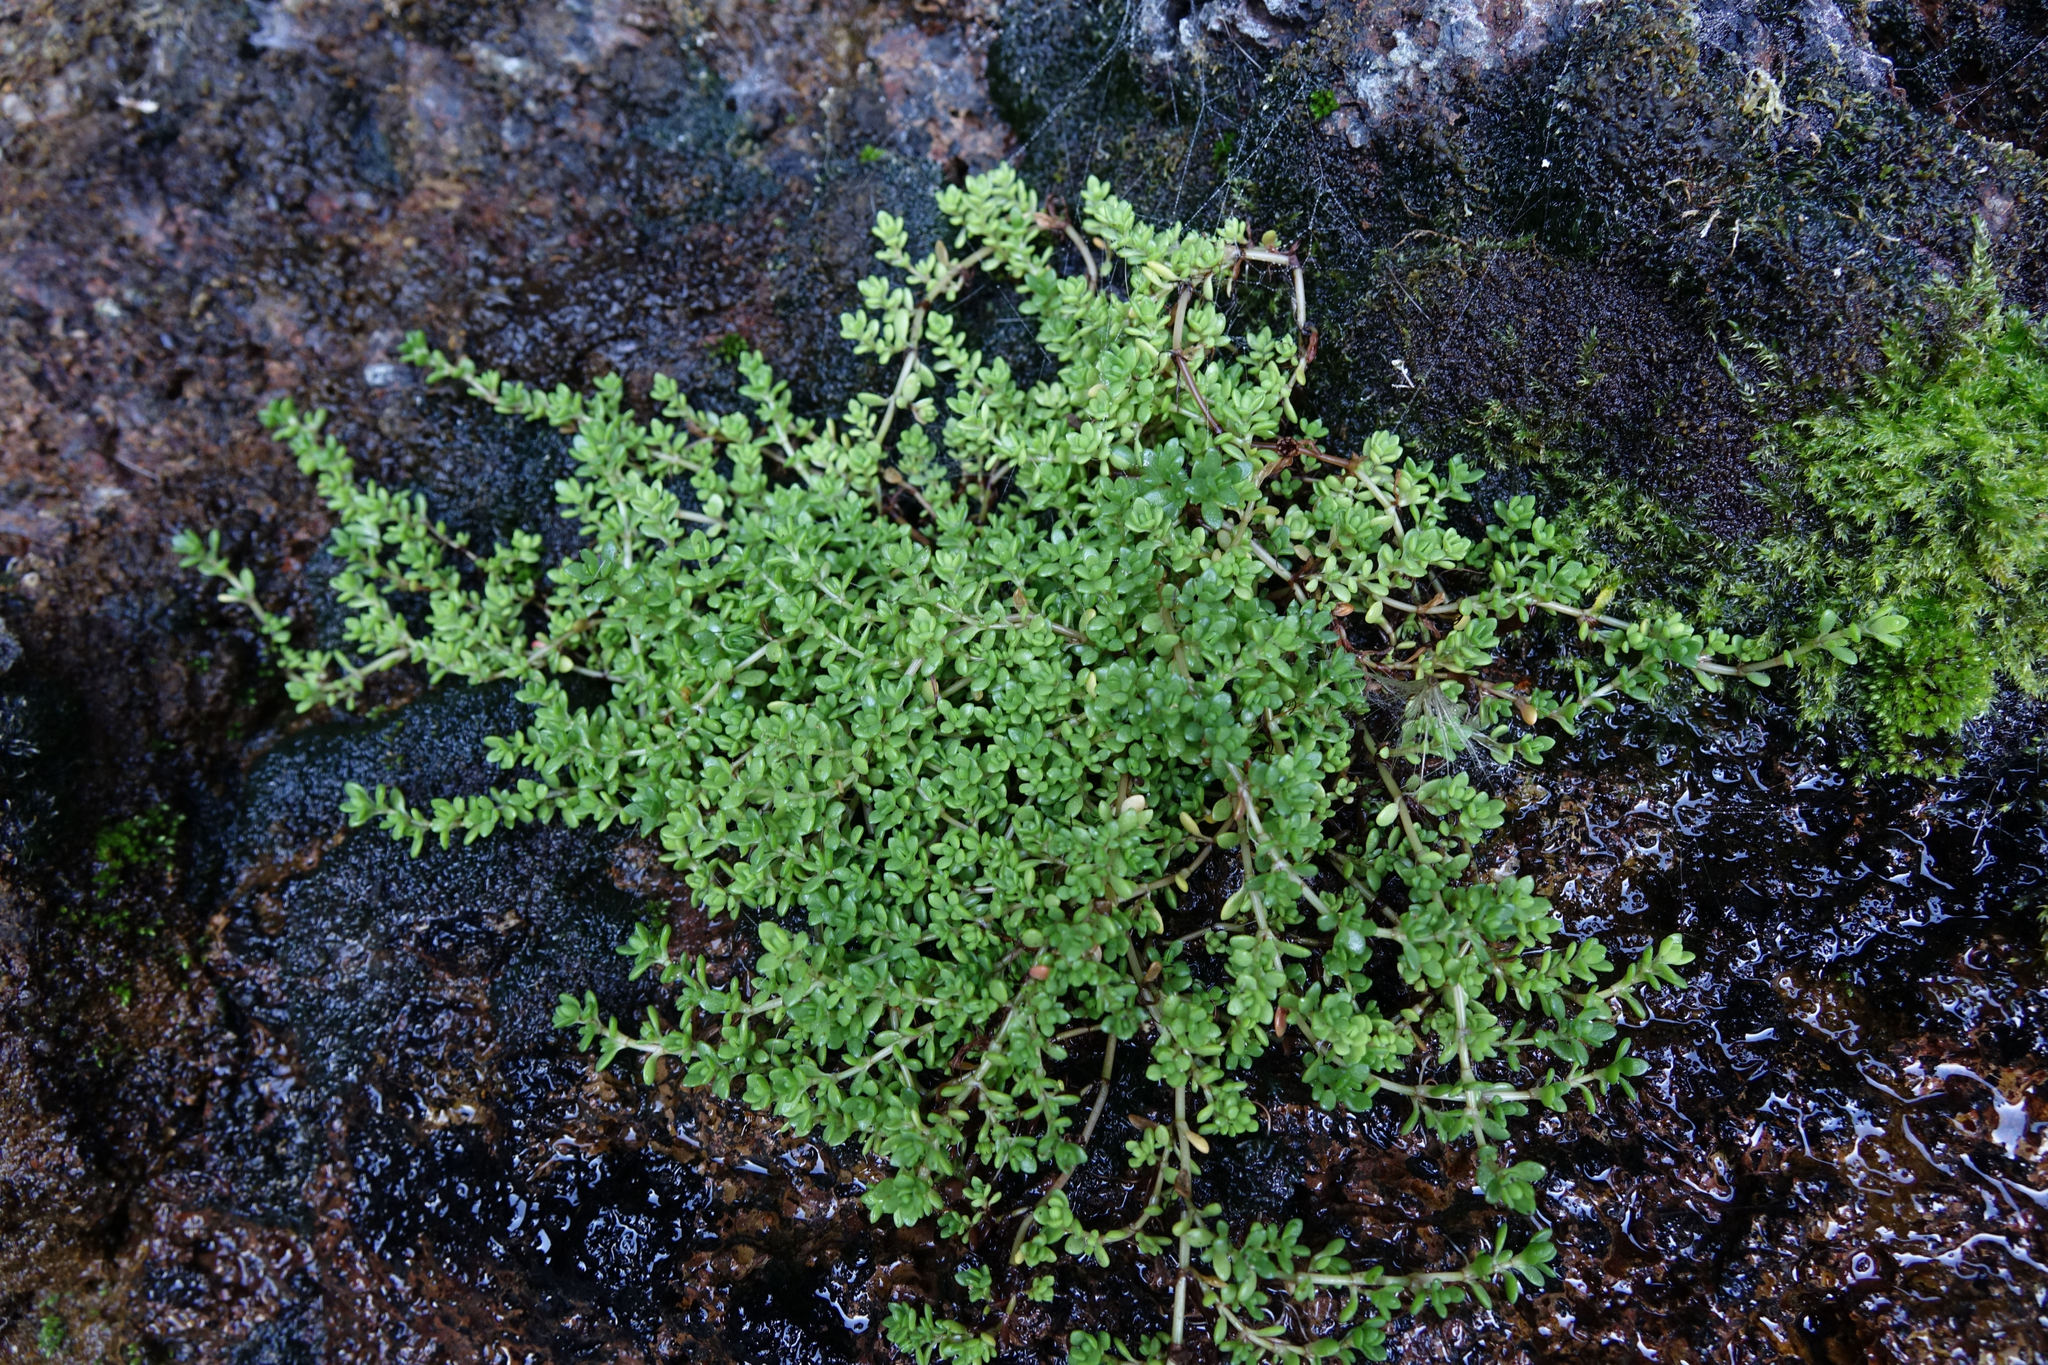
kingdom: Plantae
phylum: Tracheophyta
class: Magnoliopsida
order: Saxifragales
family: Crassulaceae
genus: Crassula
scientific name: Crassula moschata
